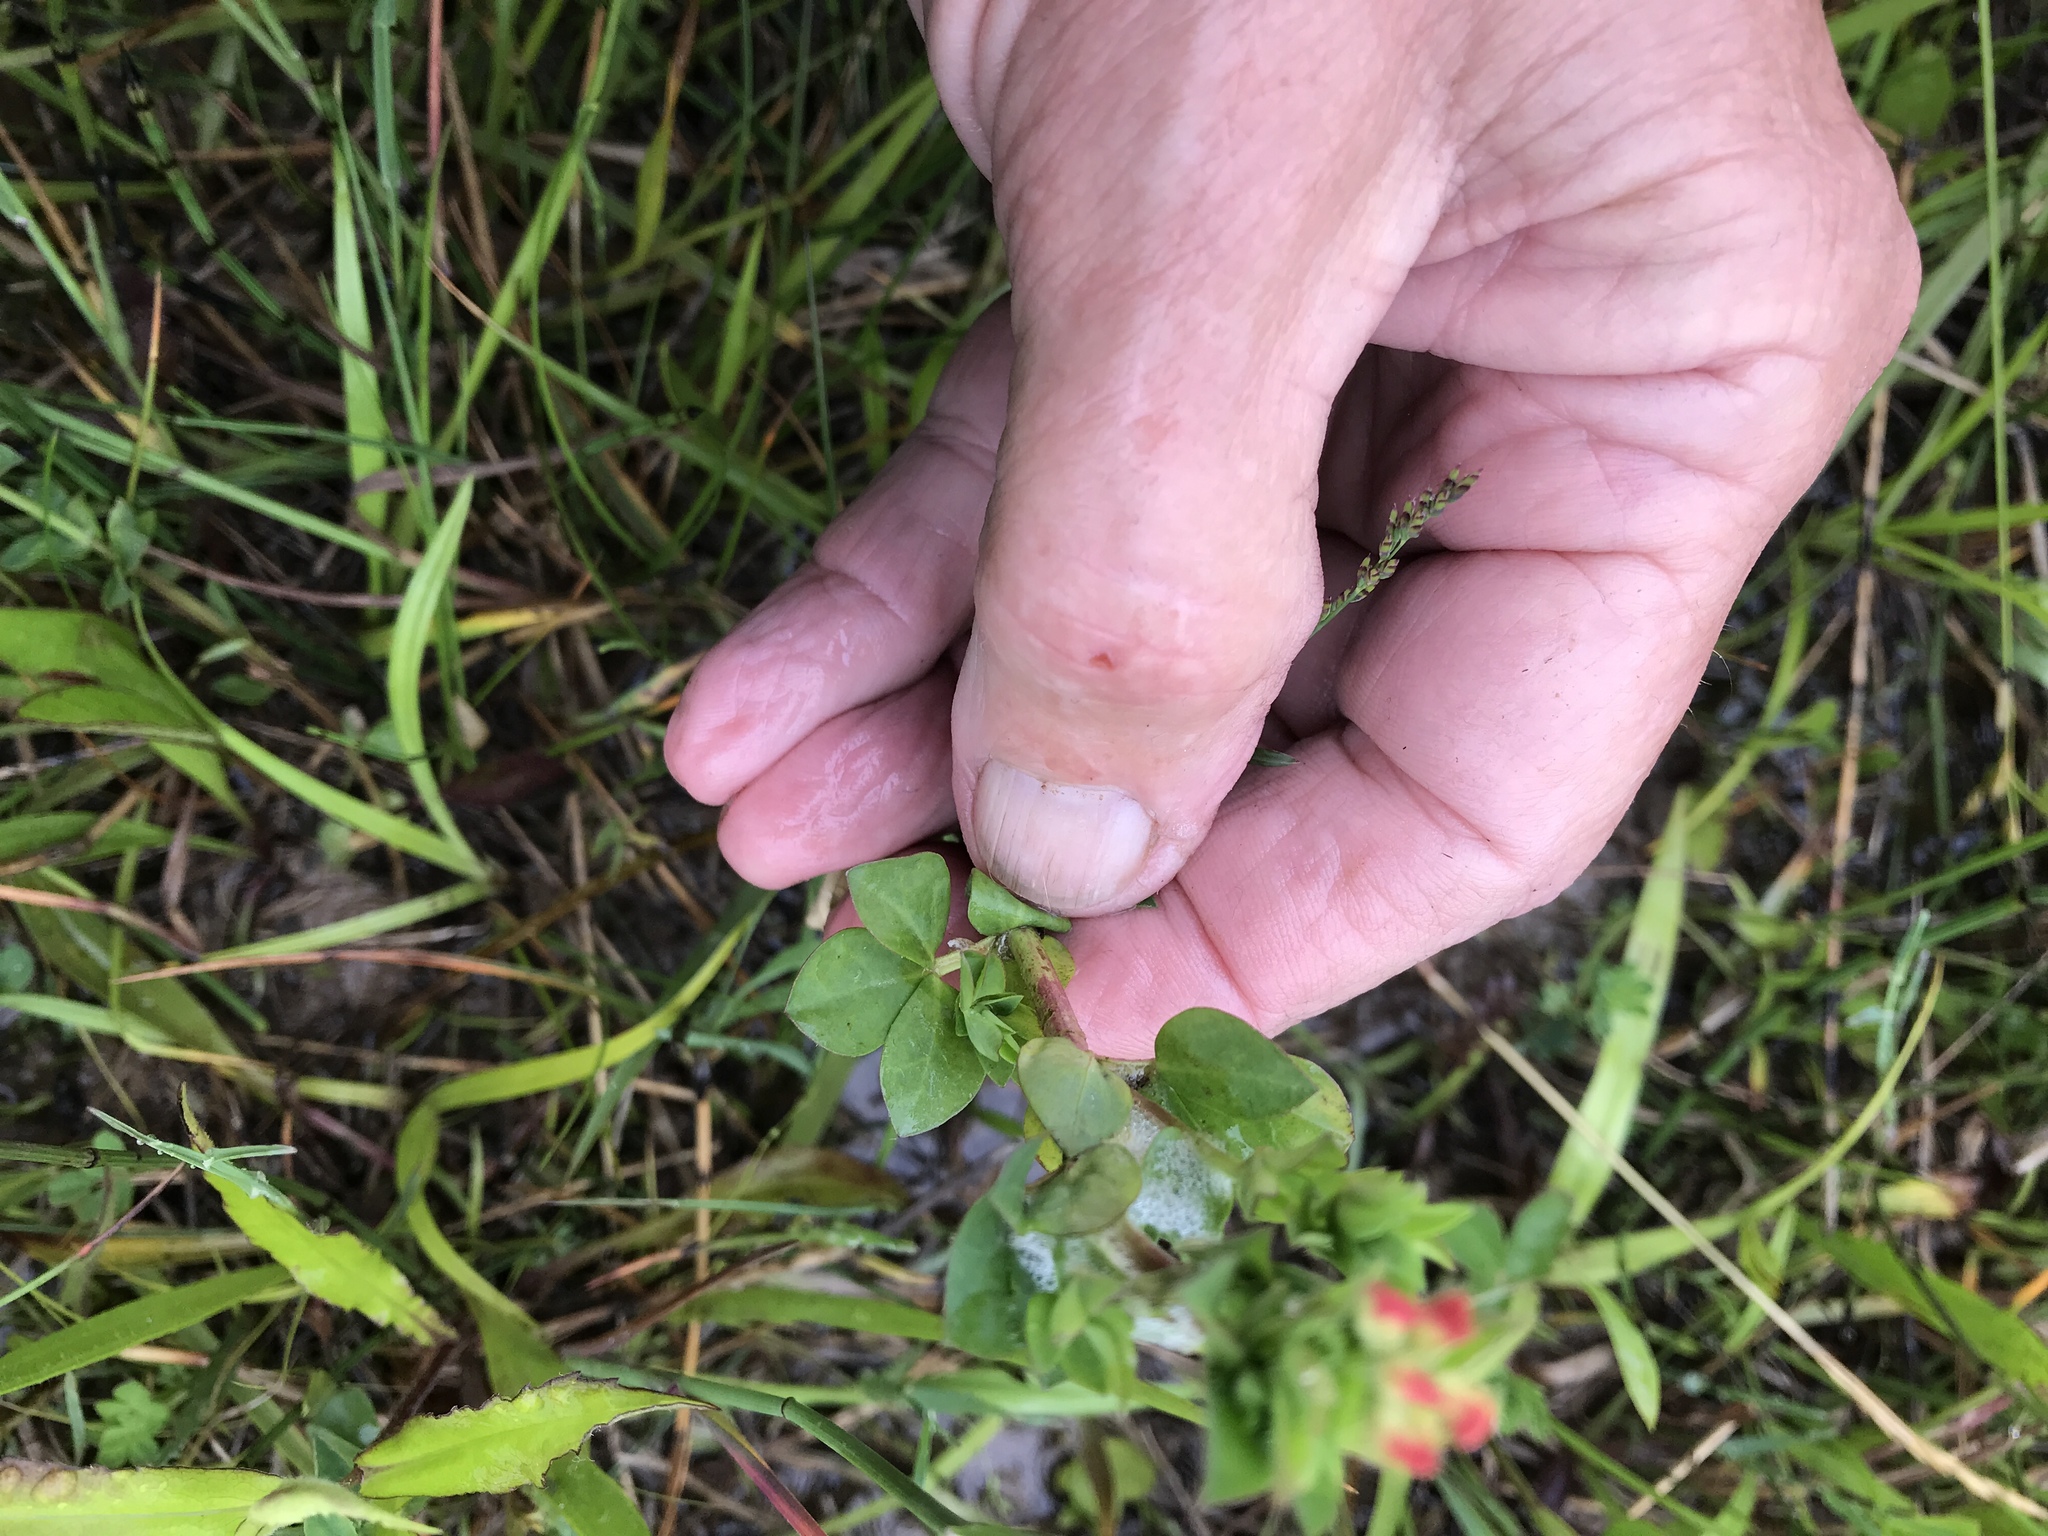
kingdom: Plantae
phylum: Tracheophyta
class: Magnoliopsida
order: Fabales
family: Fabaceae
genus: Lotus
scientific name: Lotus corniculatus
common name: Common bird's-foot-trefoil
